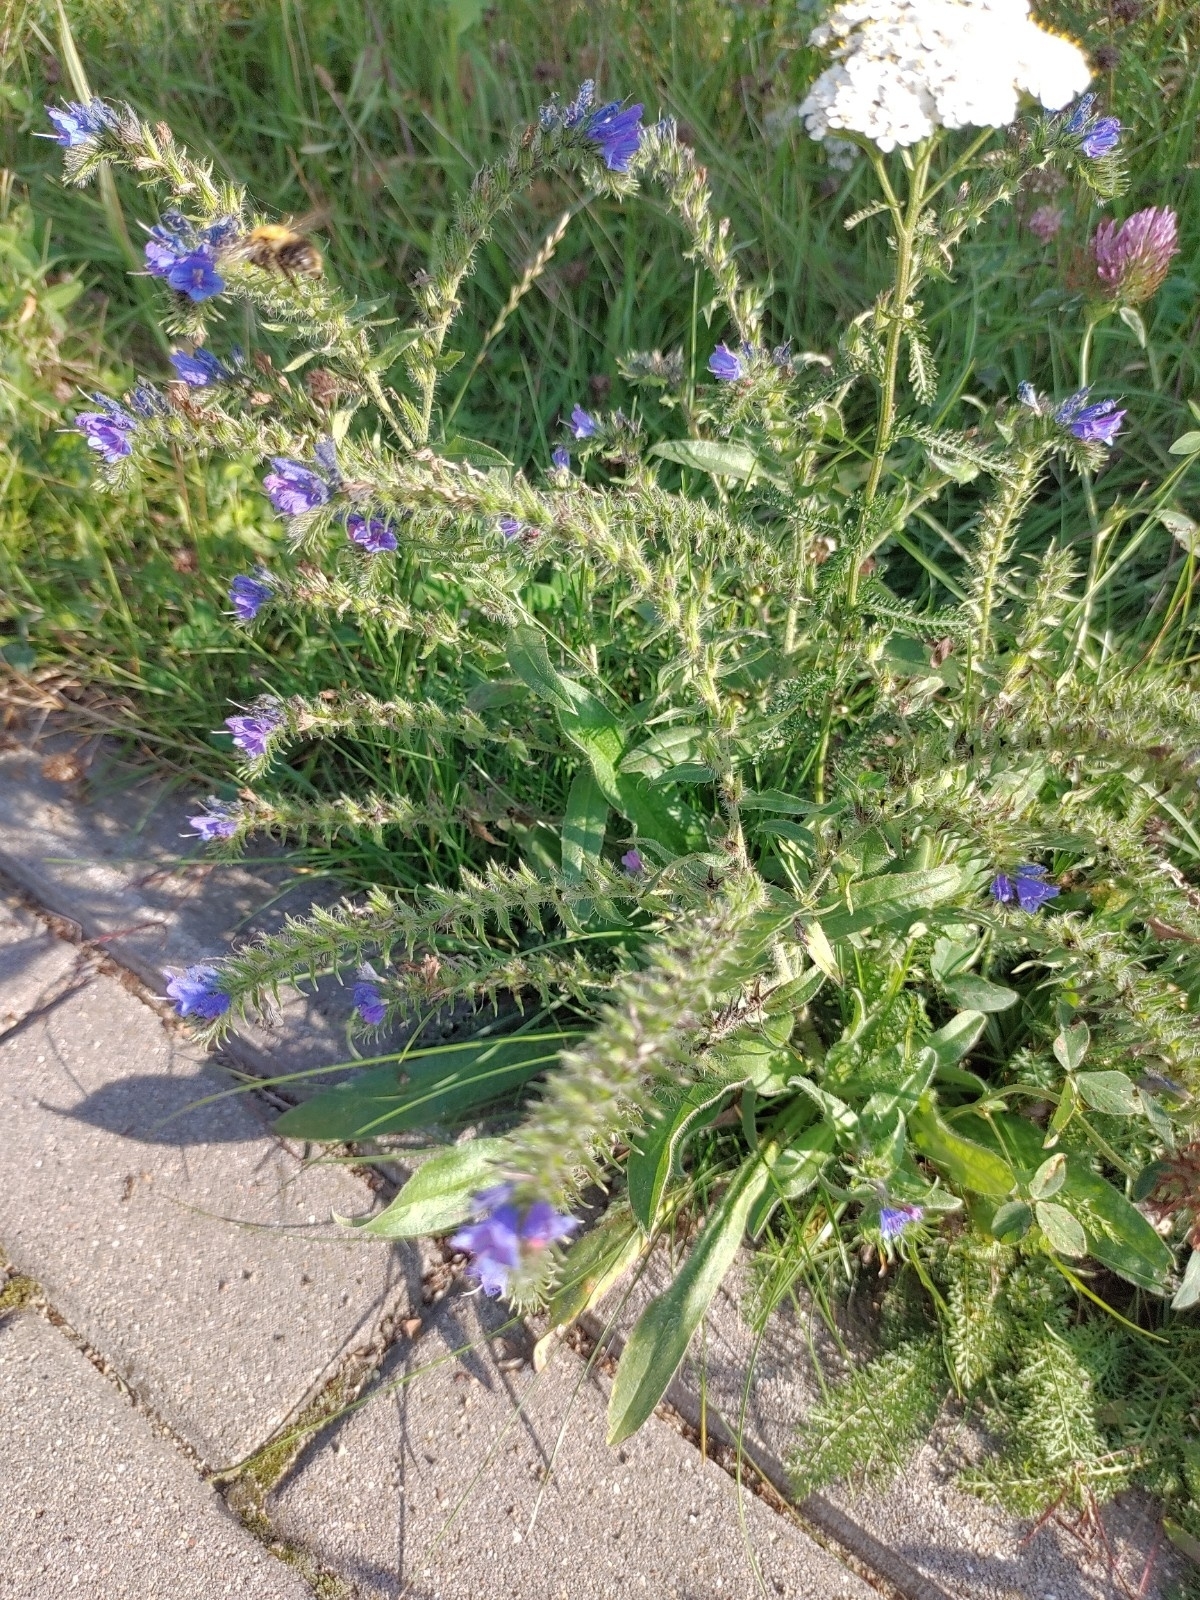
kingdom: Plantae
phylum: Tracheophyta
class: Magnoliopsida
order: Boraginales
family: Boraginaceae
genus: Echium
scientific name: Echium vulgare
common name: Common viper's bugloss
